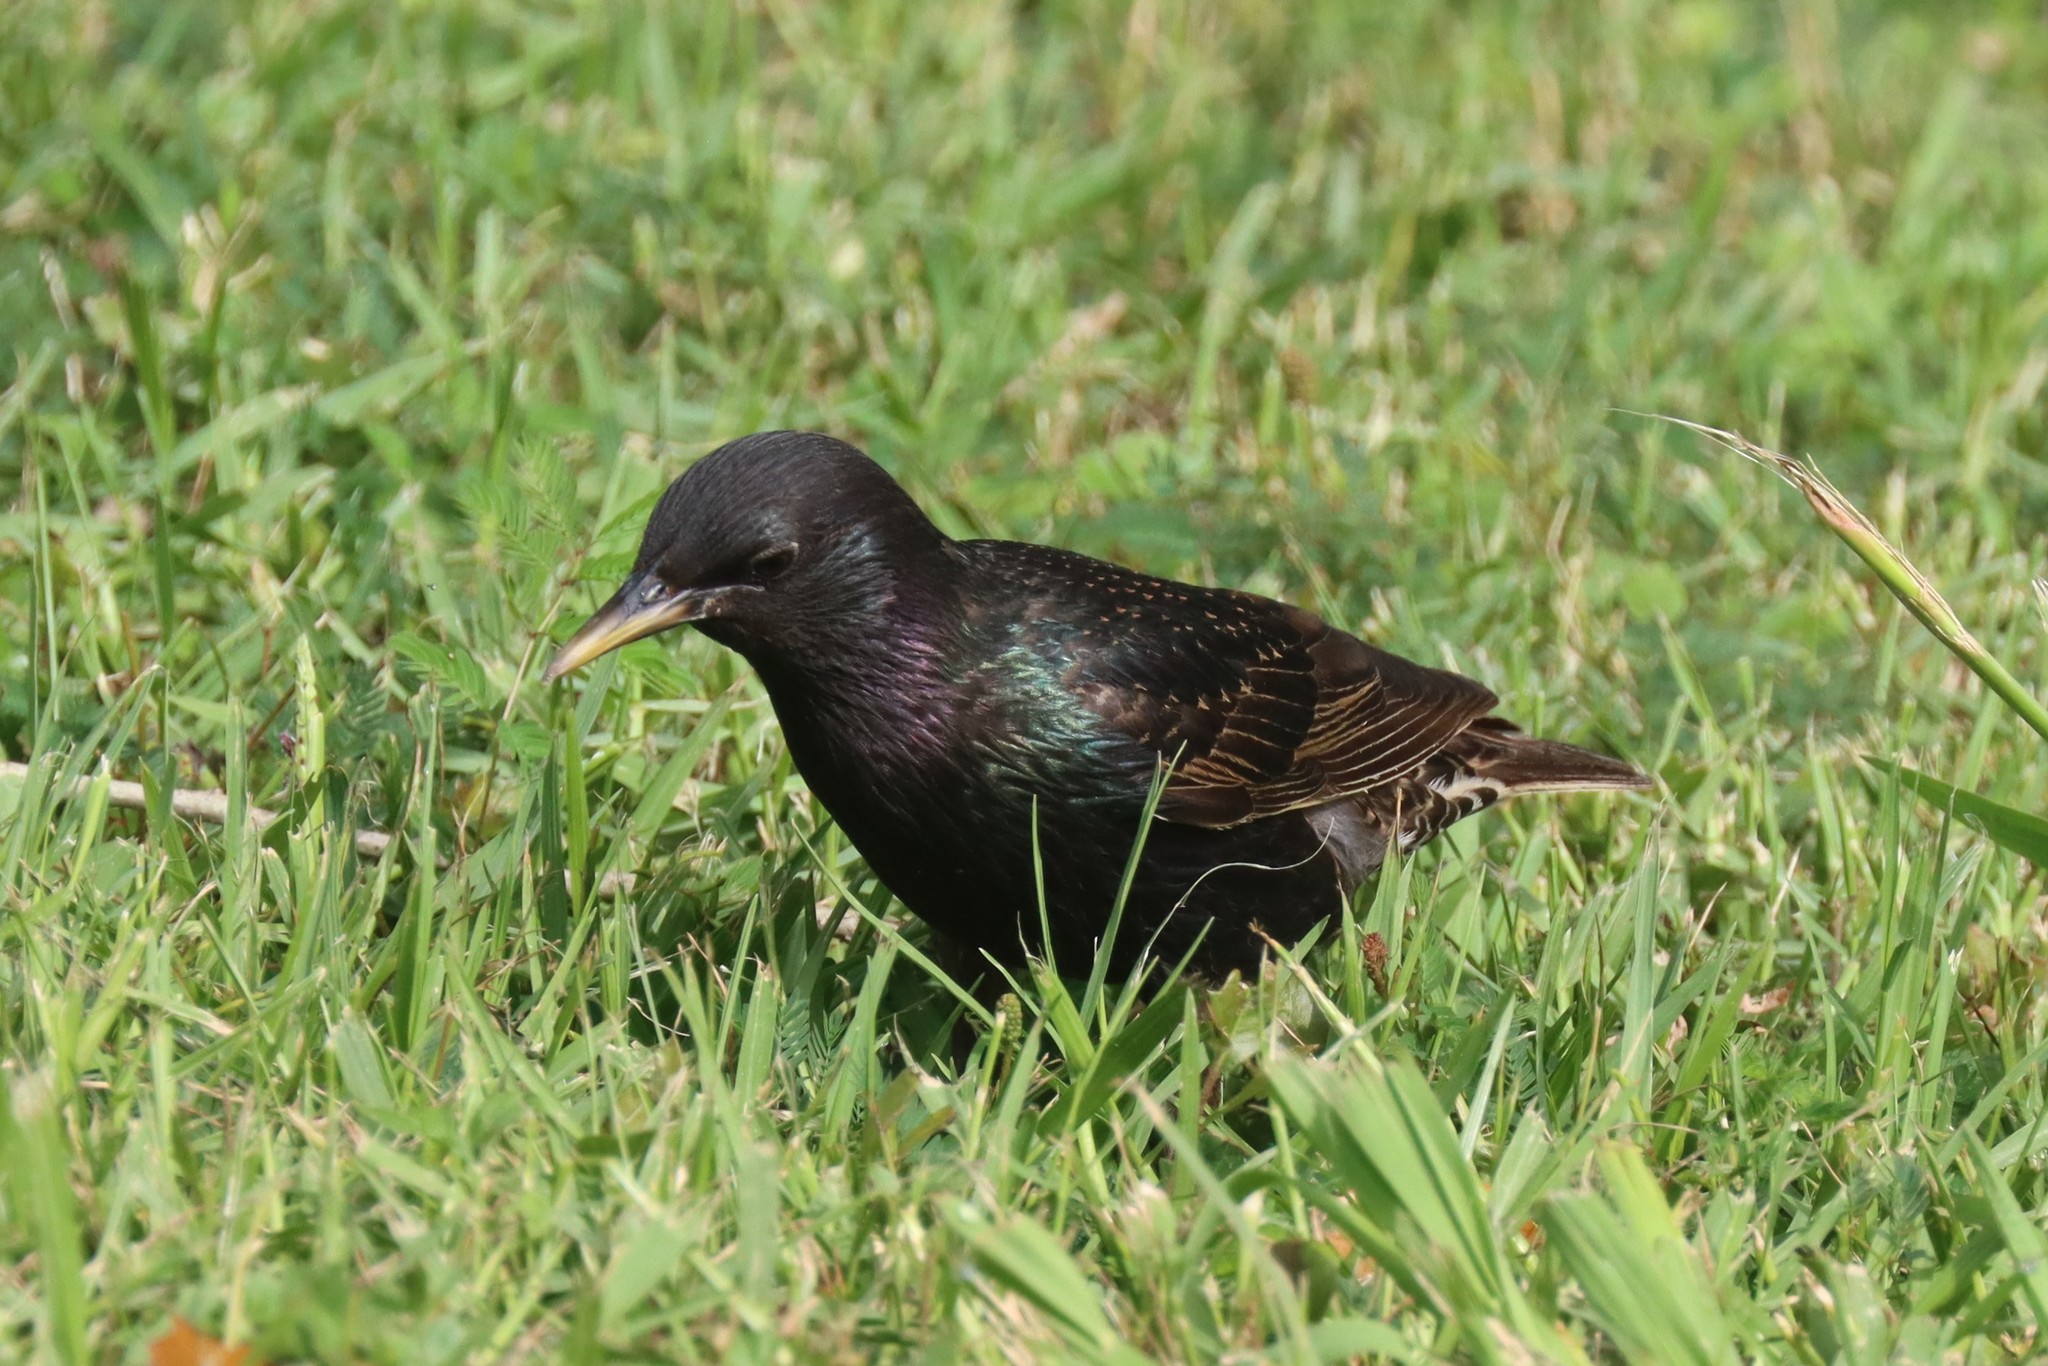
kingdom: Animalia
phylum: Chordata
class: Aves
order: Passeriformes
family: Sturnidae
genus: Sturnus
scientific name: Sturnus vulgaris
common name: Common starling
